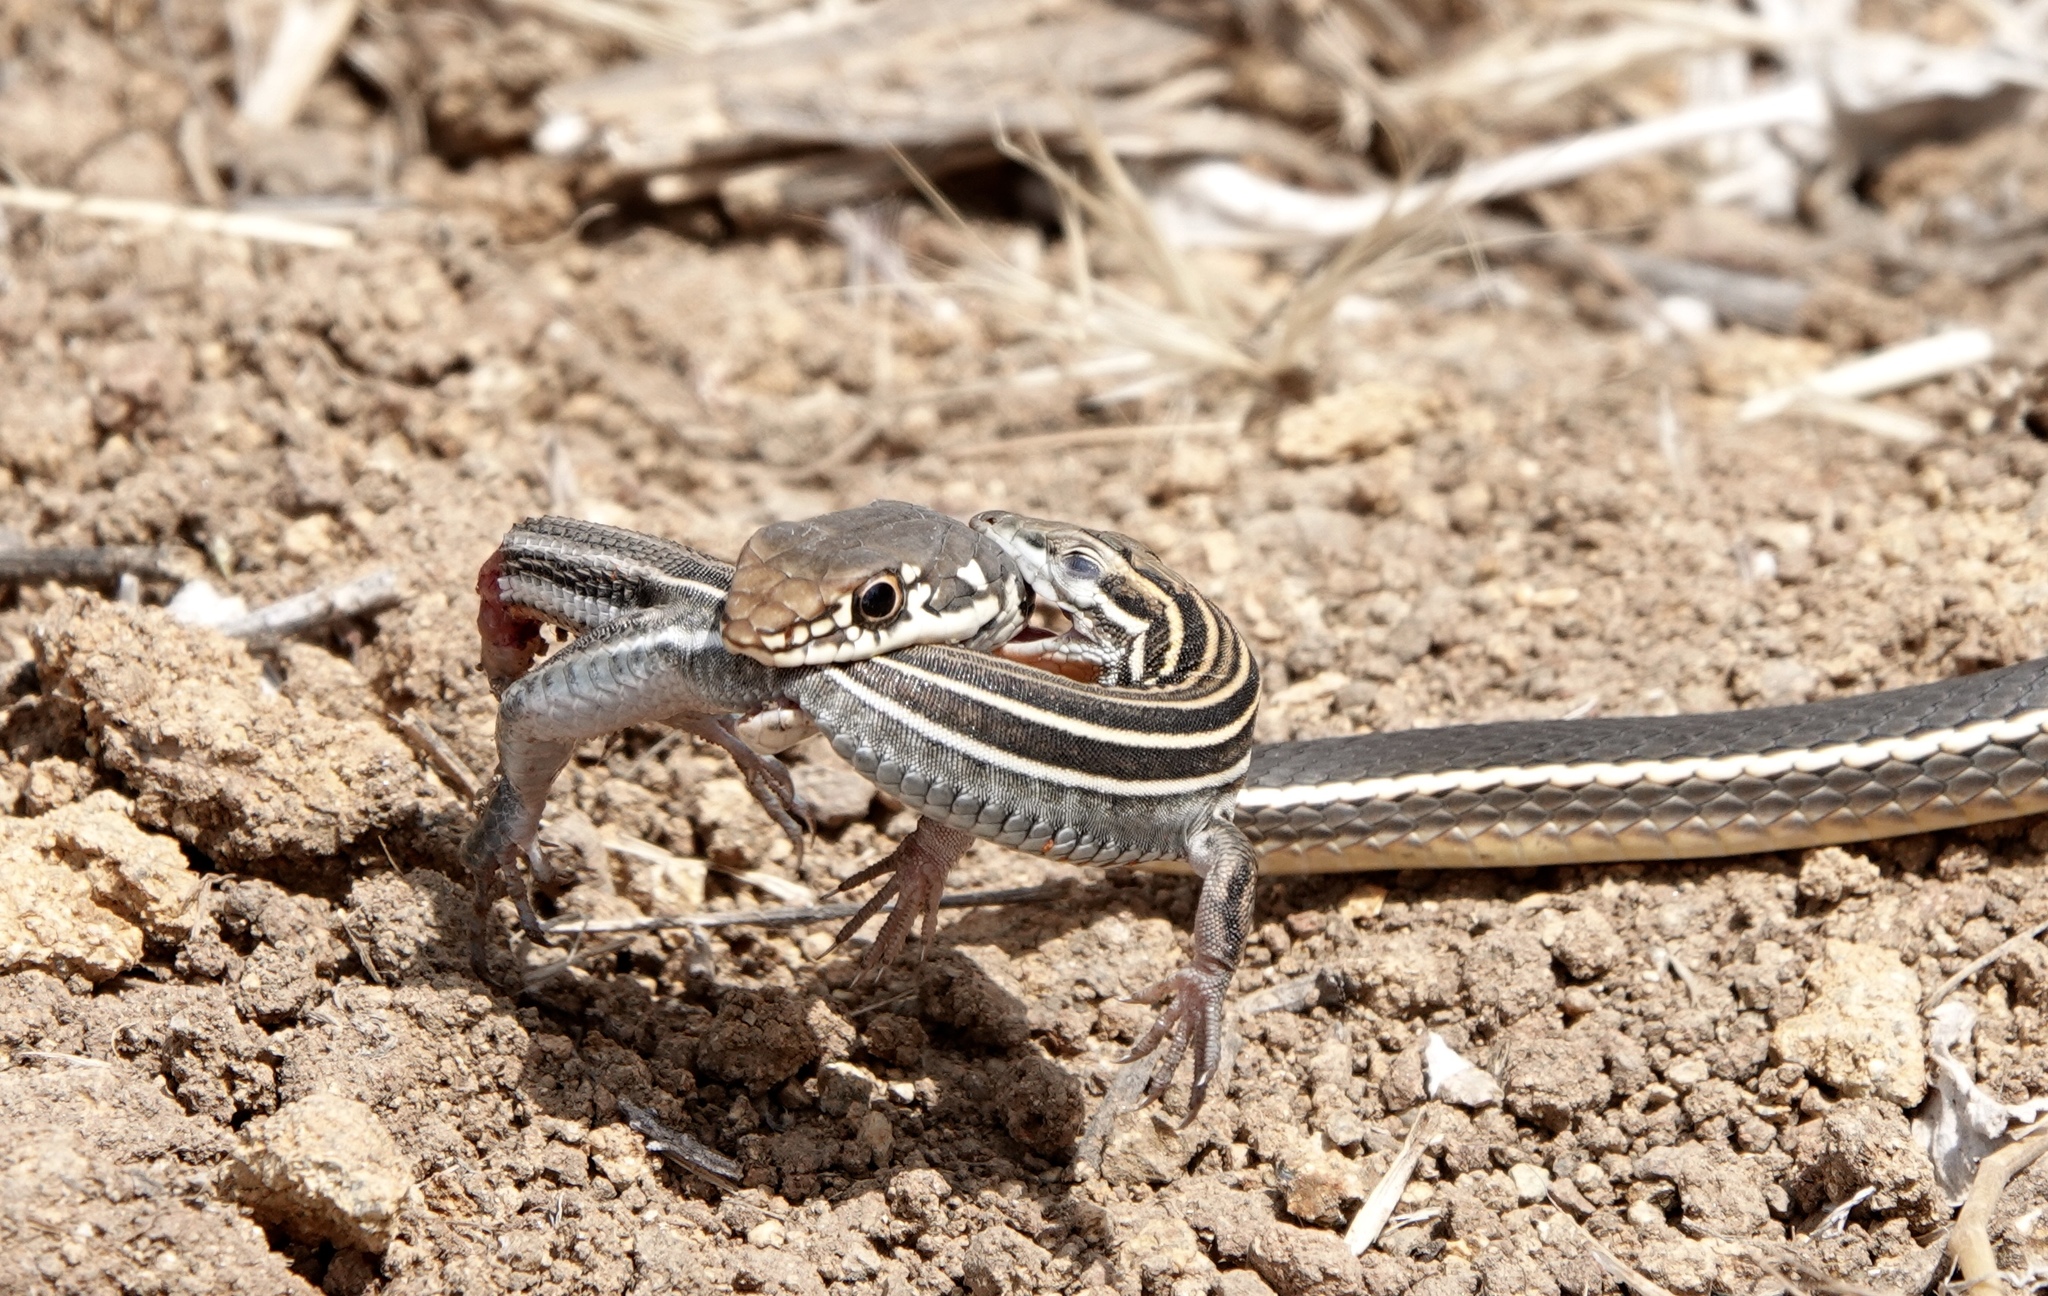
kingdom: Animalia
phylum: Chordata
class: Squamata
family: Colubridae
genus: Masticophis
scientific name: Masticophis lateralis
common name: Striped racer
